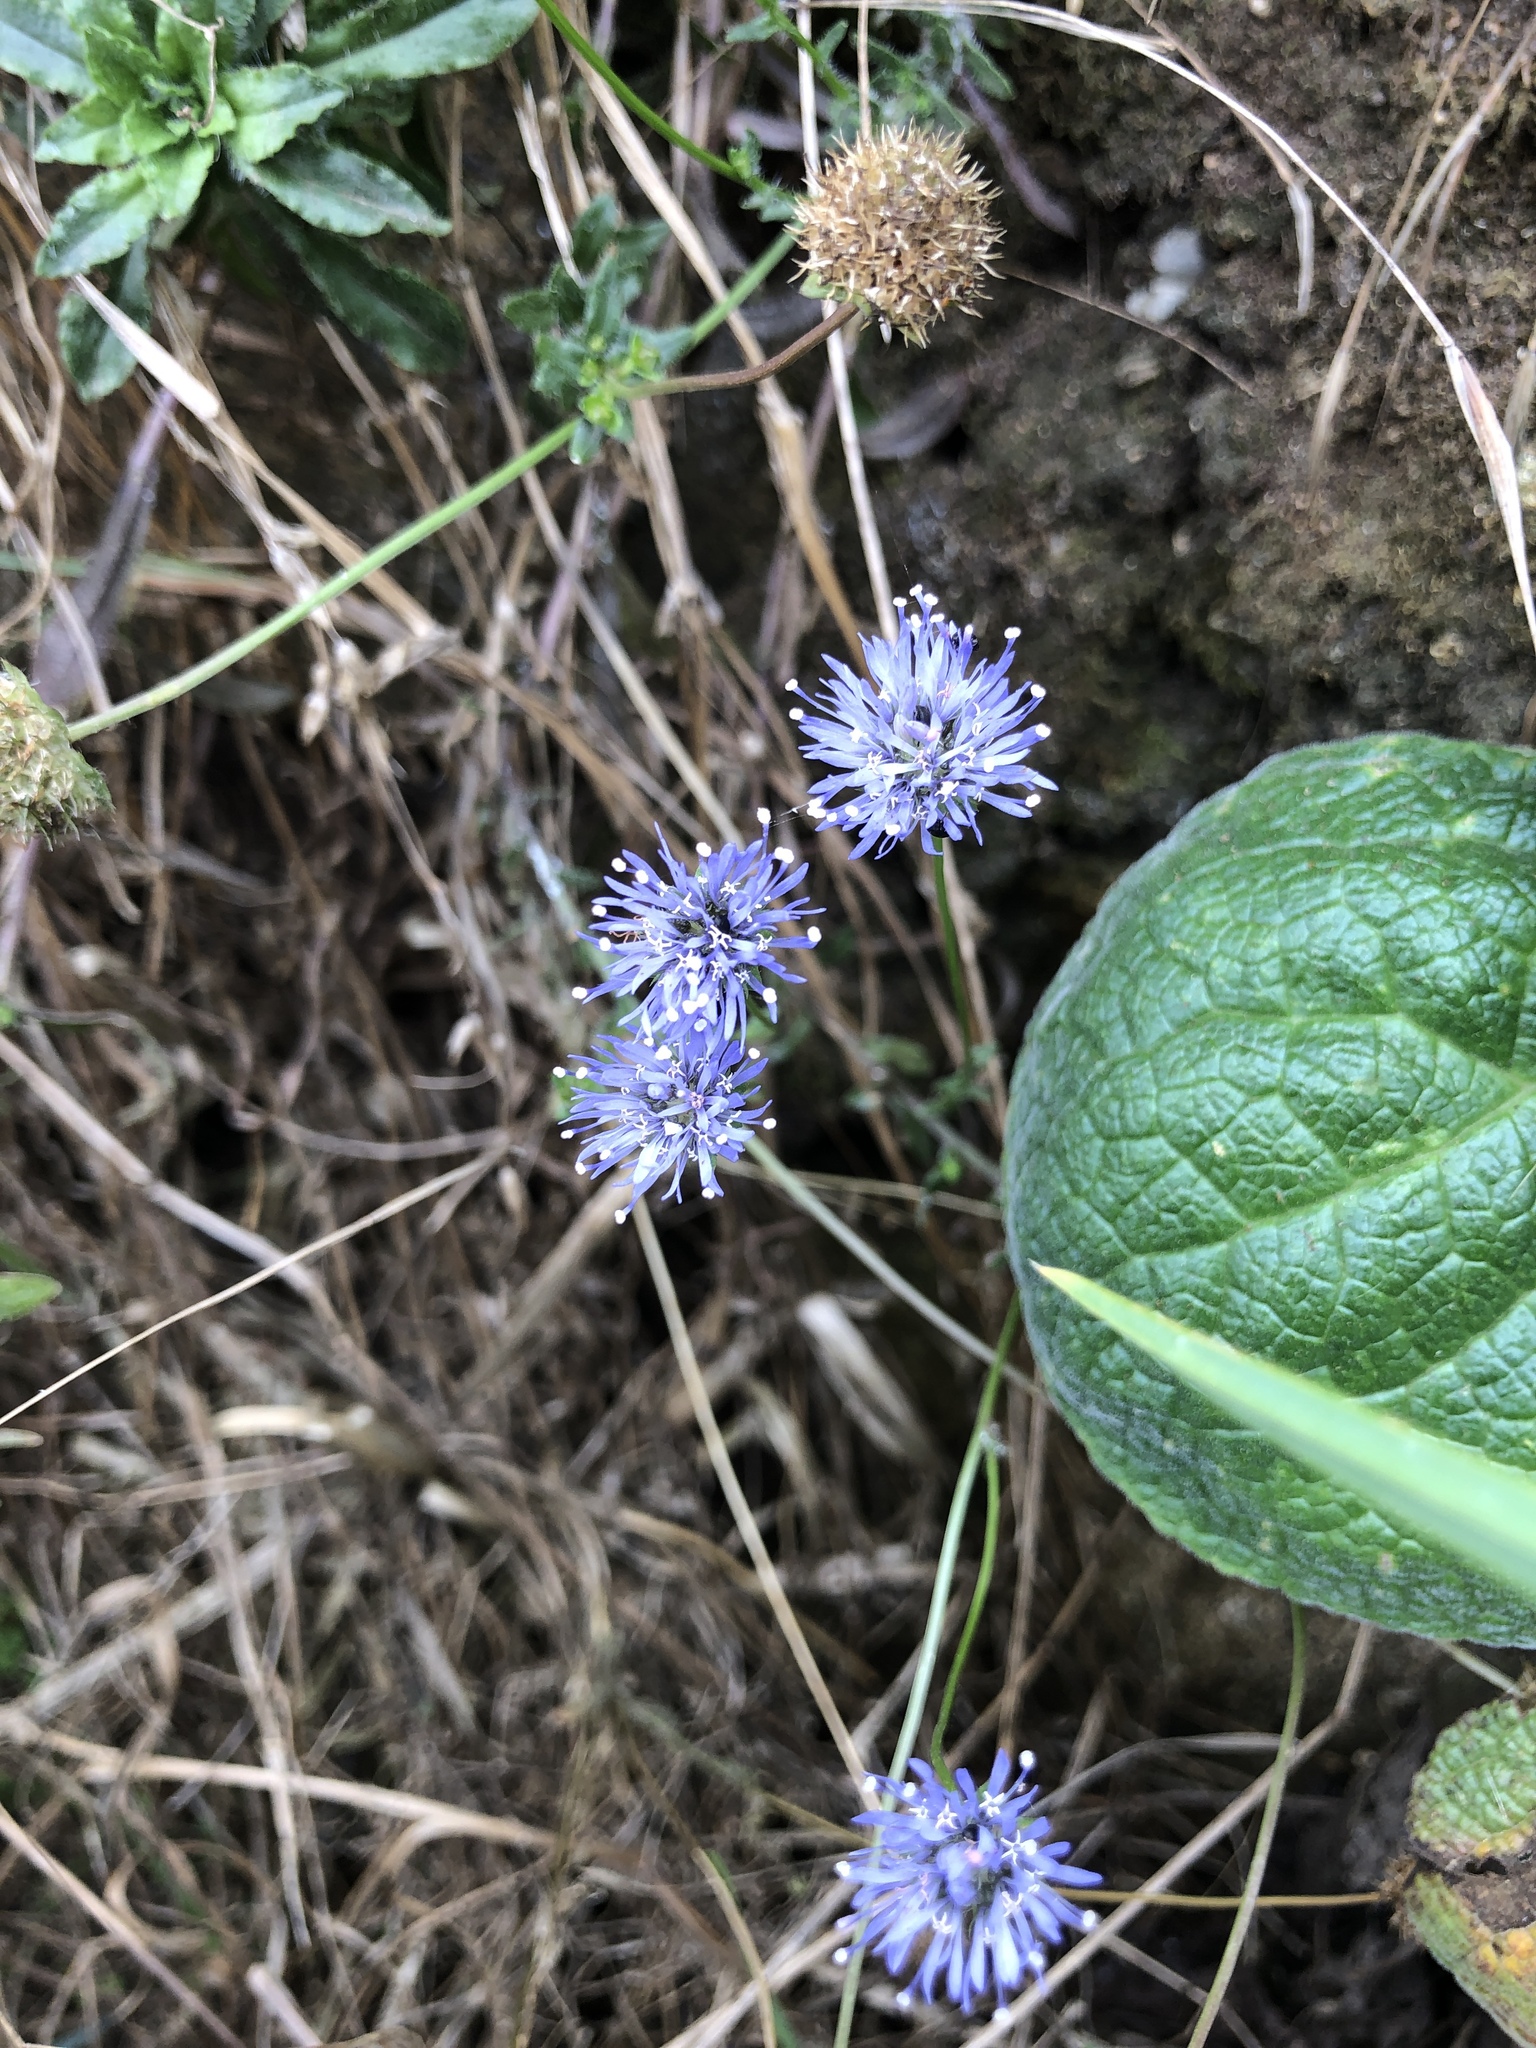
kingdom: Plantae
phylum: Tracheophyta
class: Magnoliopsida
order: Asterales
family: Campanulaceae
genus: Jasione
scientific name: Jasione montana
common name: Sheep's-bit
